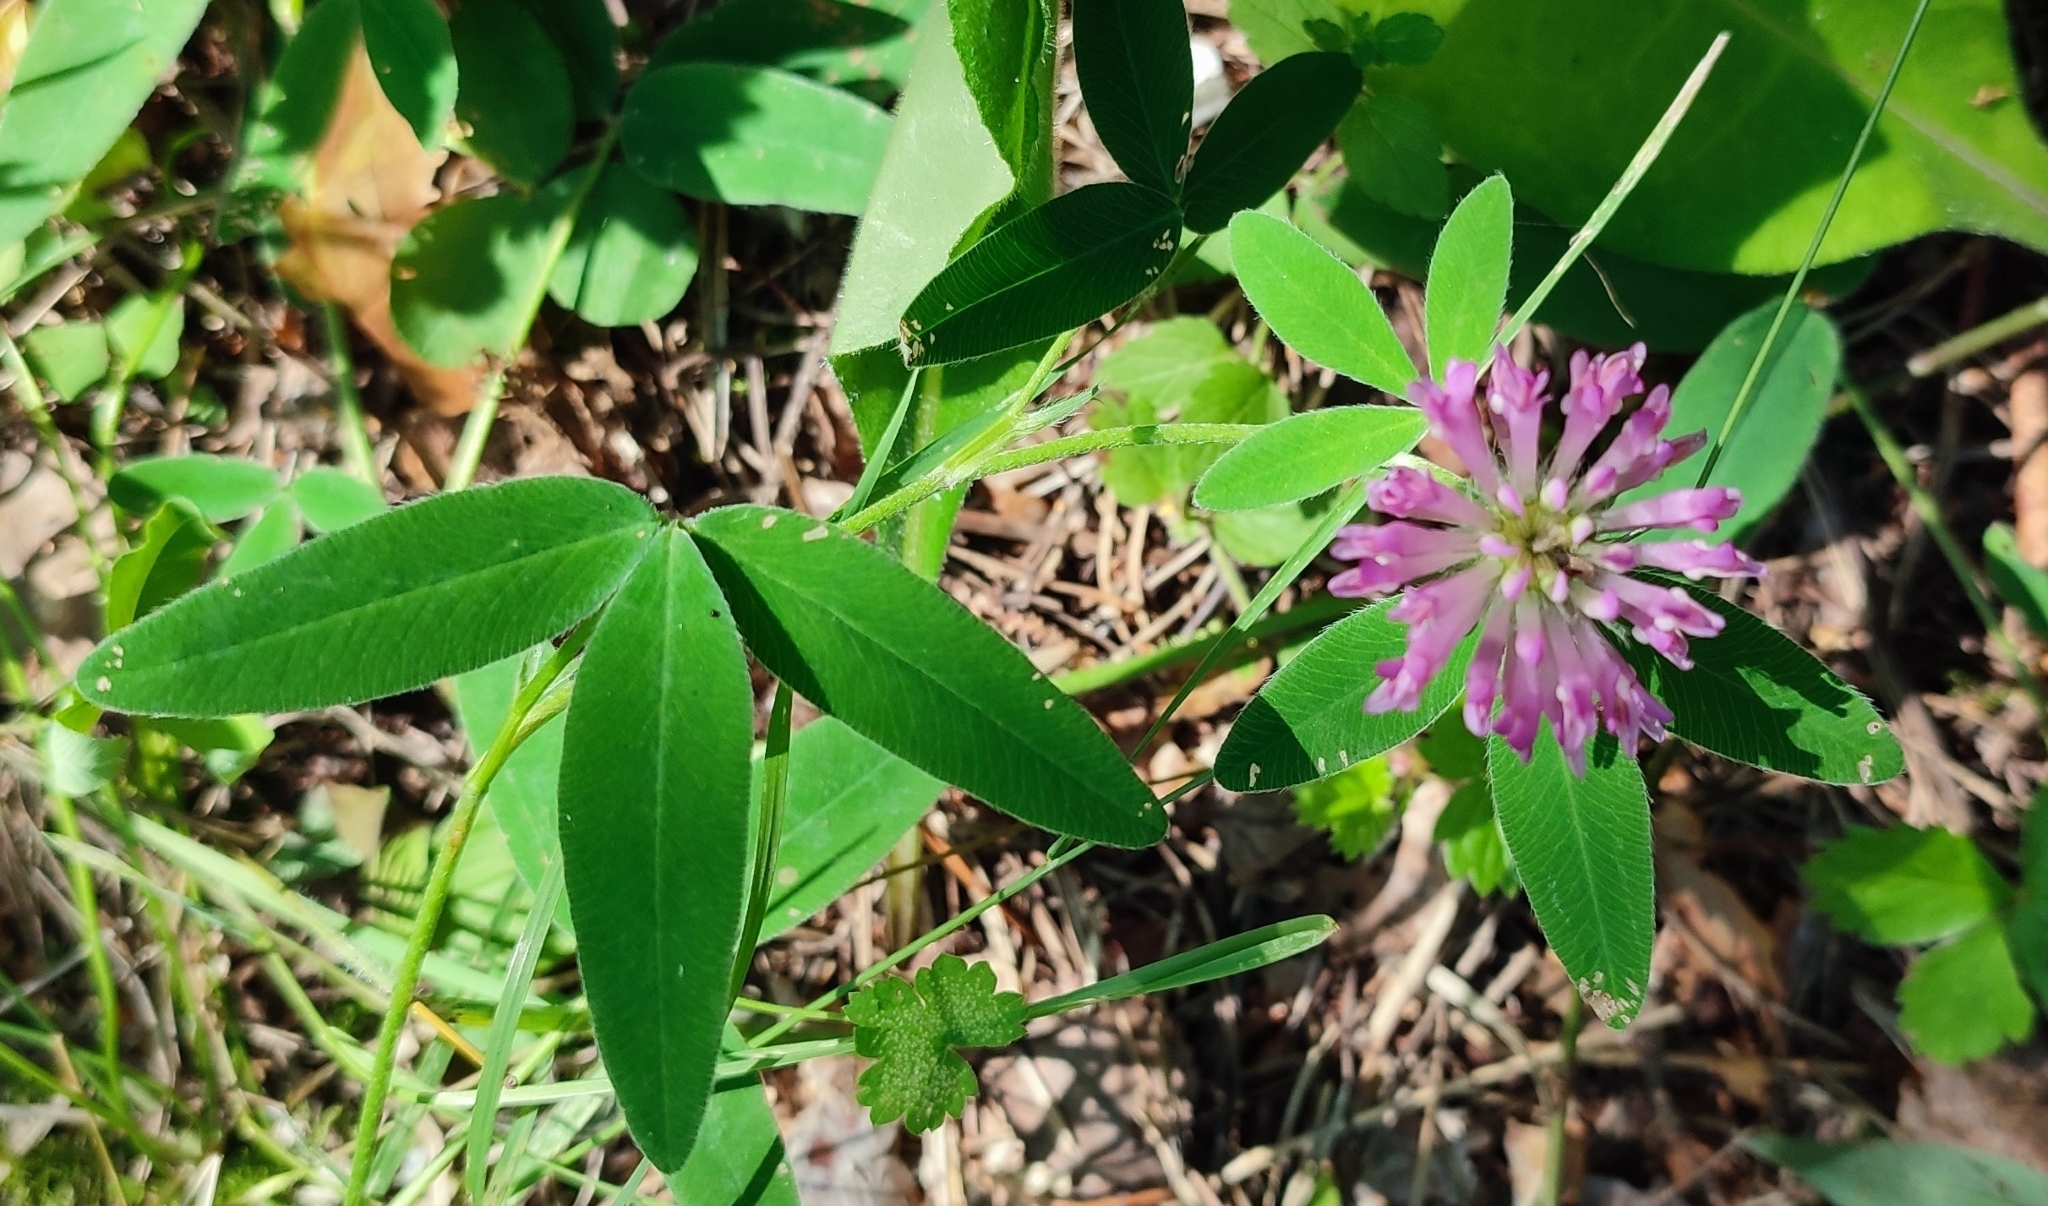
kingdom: Plantae
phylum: Tracheophyta
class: Magnoliopsida
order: Fabales
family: Fabaceae
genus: Trifolium
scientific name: Trifolium medium
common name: Zigzag clover
